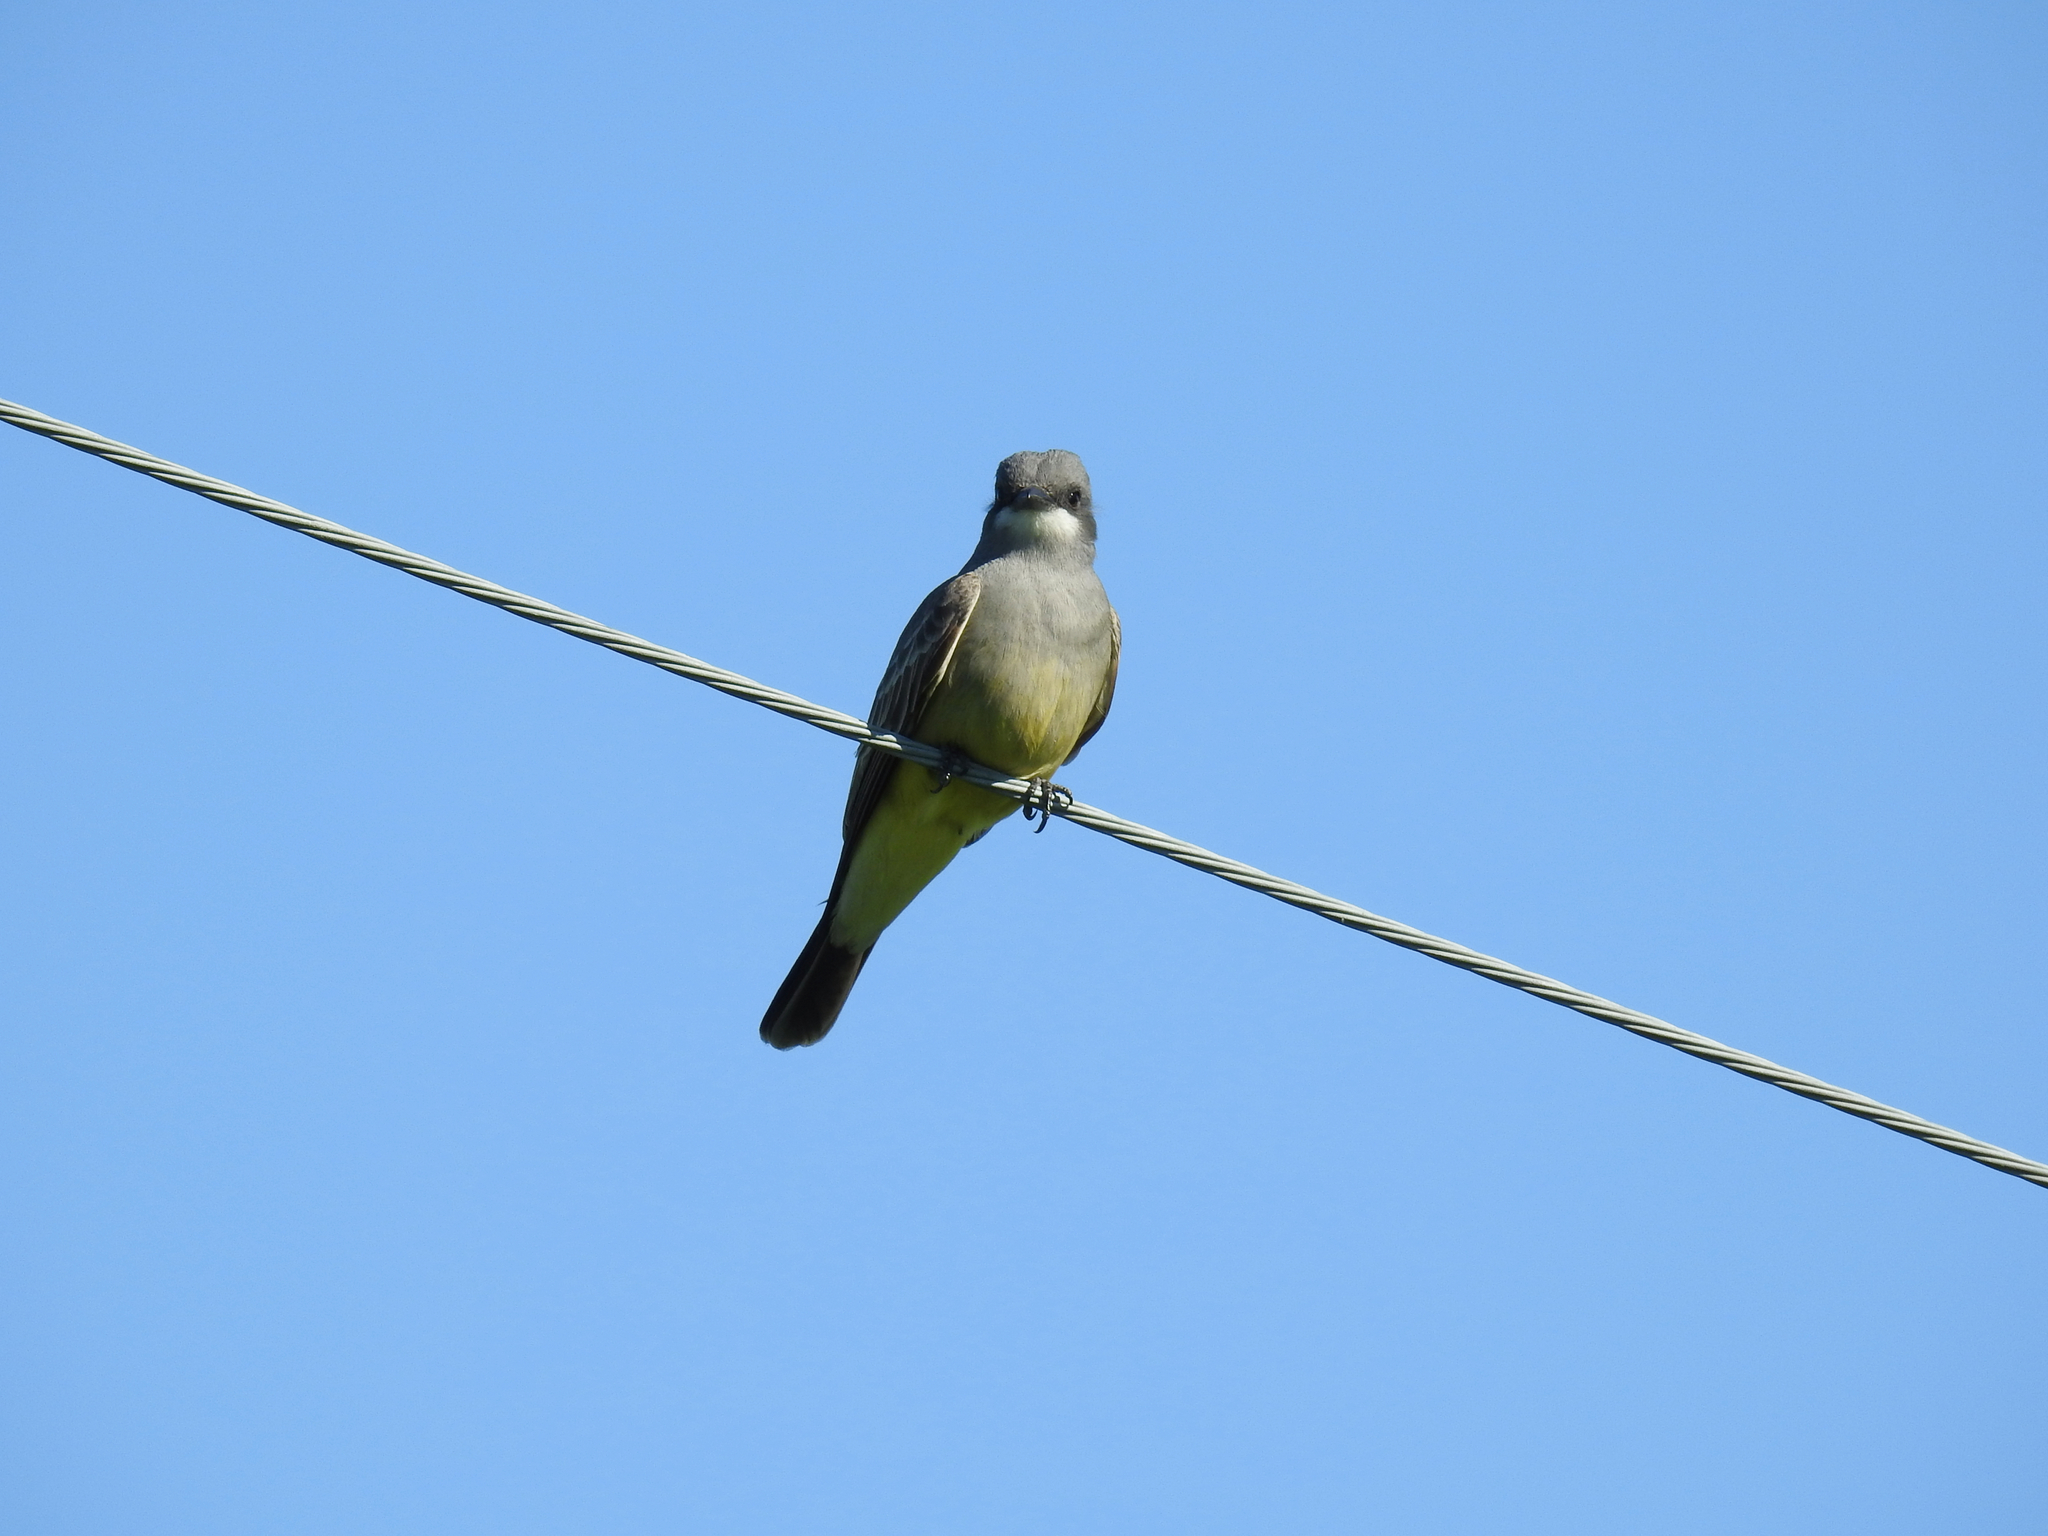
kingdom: Animalia
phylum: Chordata
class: Aves
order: Passeriformes
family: Tyrannidae
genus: Tyrannus
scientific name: Tyrannus vociferans
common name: Cassin's kingbird
